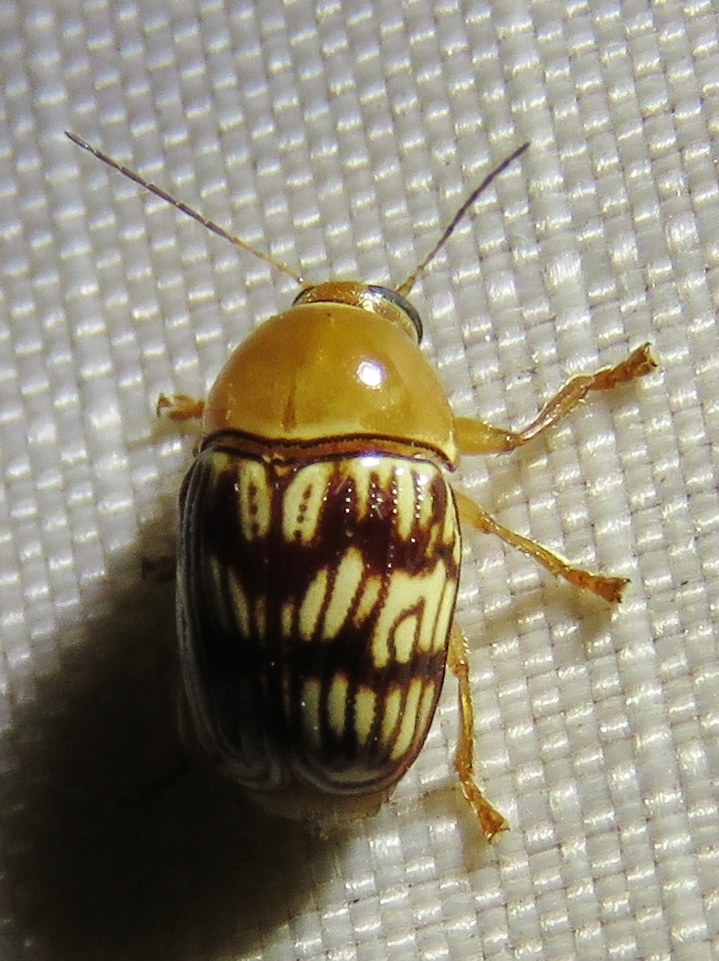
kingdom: Animalia
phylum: Arthropoda
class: Insecta
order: Coleoptera
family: Chrysomelidae
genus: Cryptocephalus
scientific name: Cryptocephalus fulguratus
